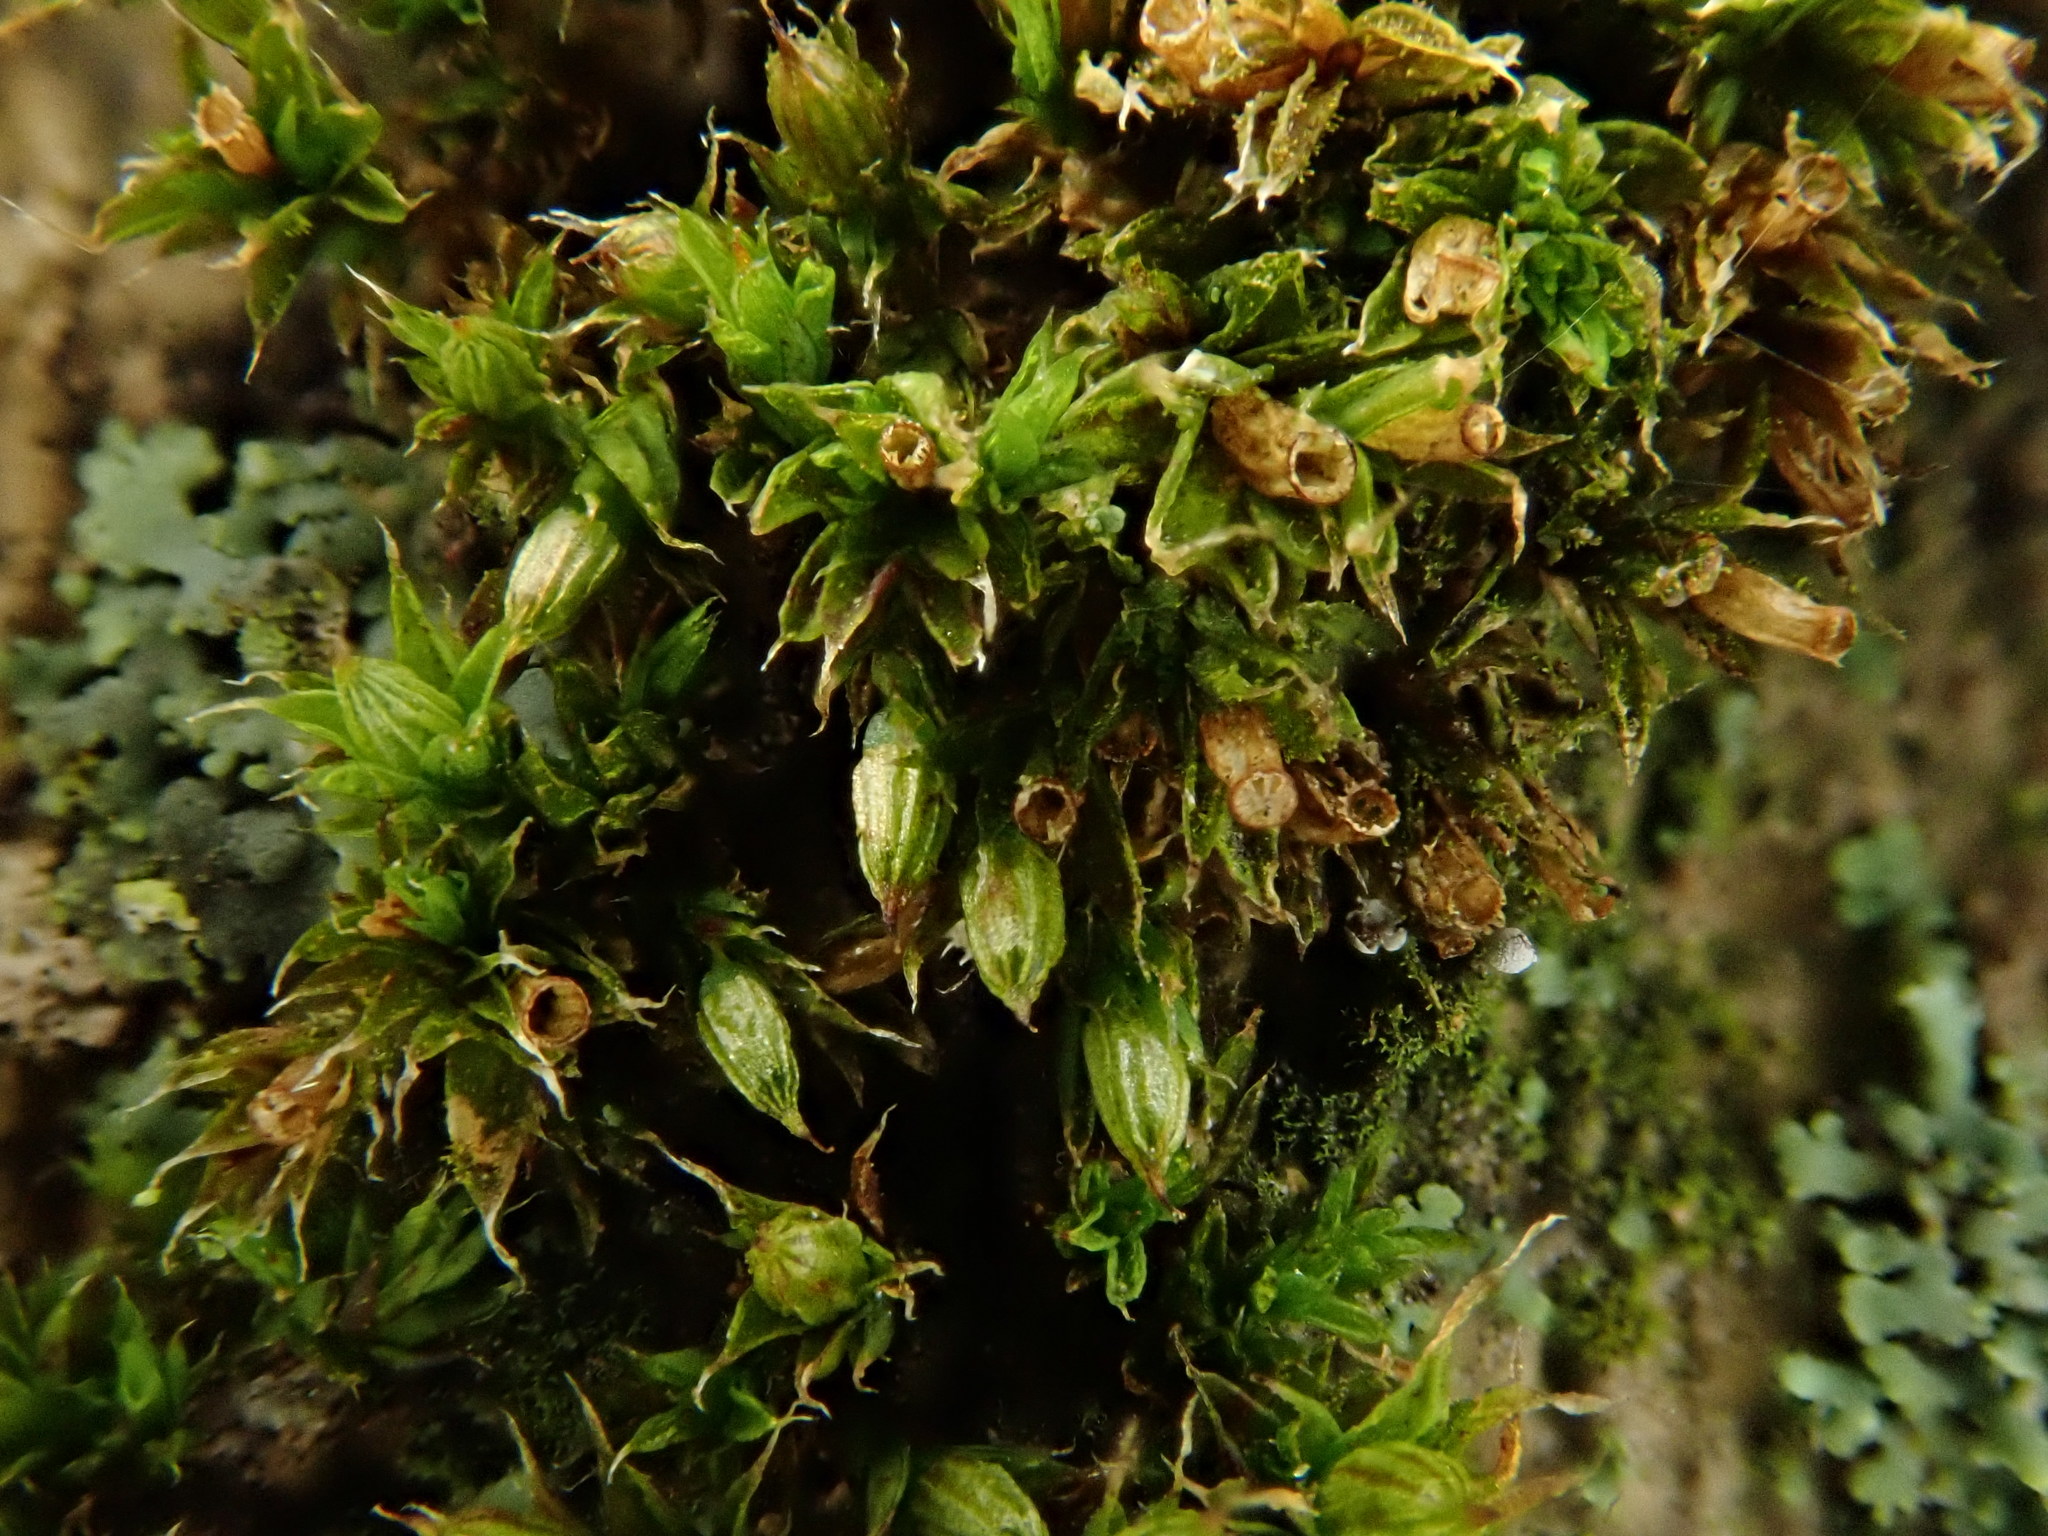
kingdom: Plantae
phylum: Bryophyta
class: Bryopsida
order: Orthotrichales
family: Orthotrichaceae
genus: Orthotrichum
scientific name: Orthotrichum diaphanum
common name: White-tipped bristle-moss
